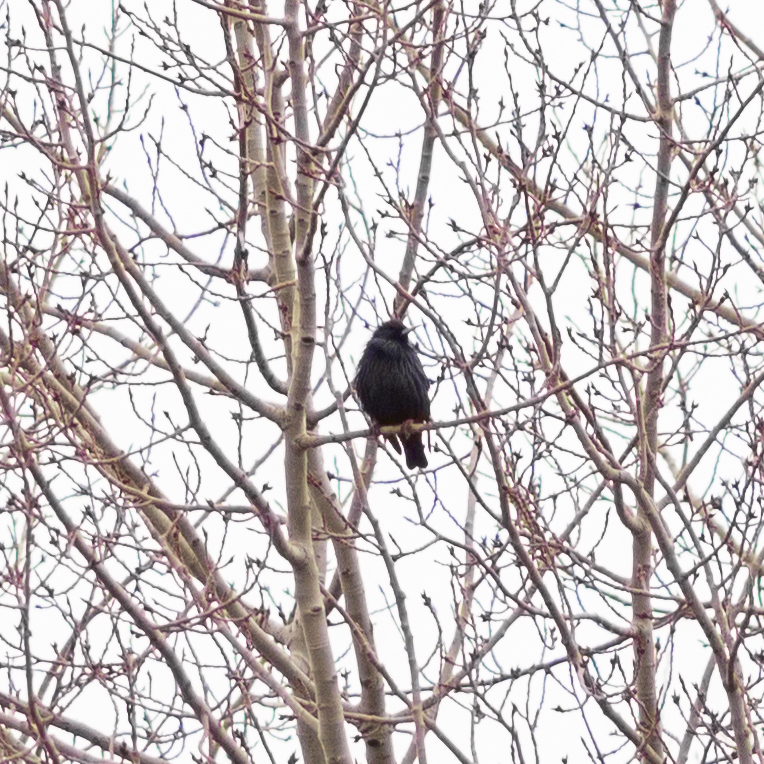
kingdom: Animalia
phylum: Chordata
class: Aves
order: Passeriformes
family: Sturnidae
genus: Sturnus
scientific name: Sturnus unicolor
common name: Spotless starling
